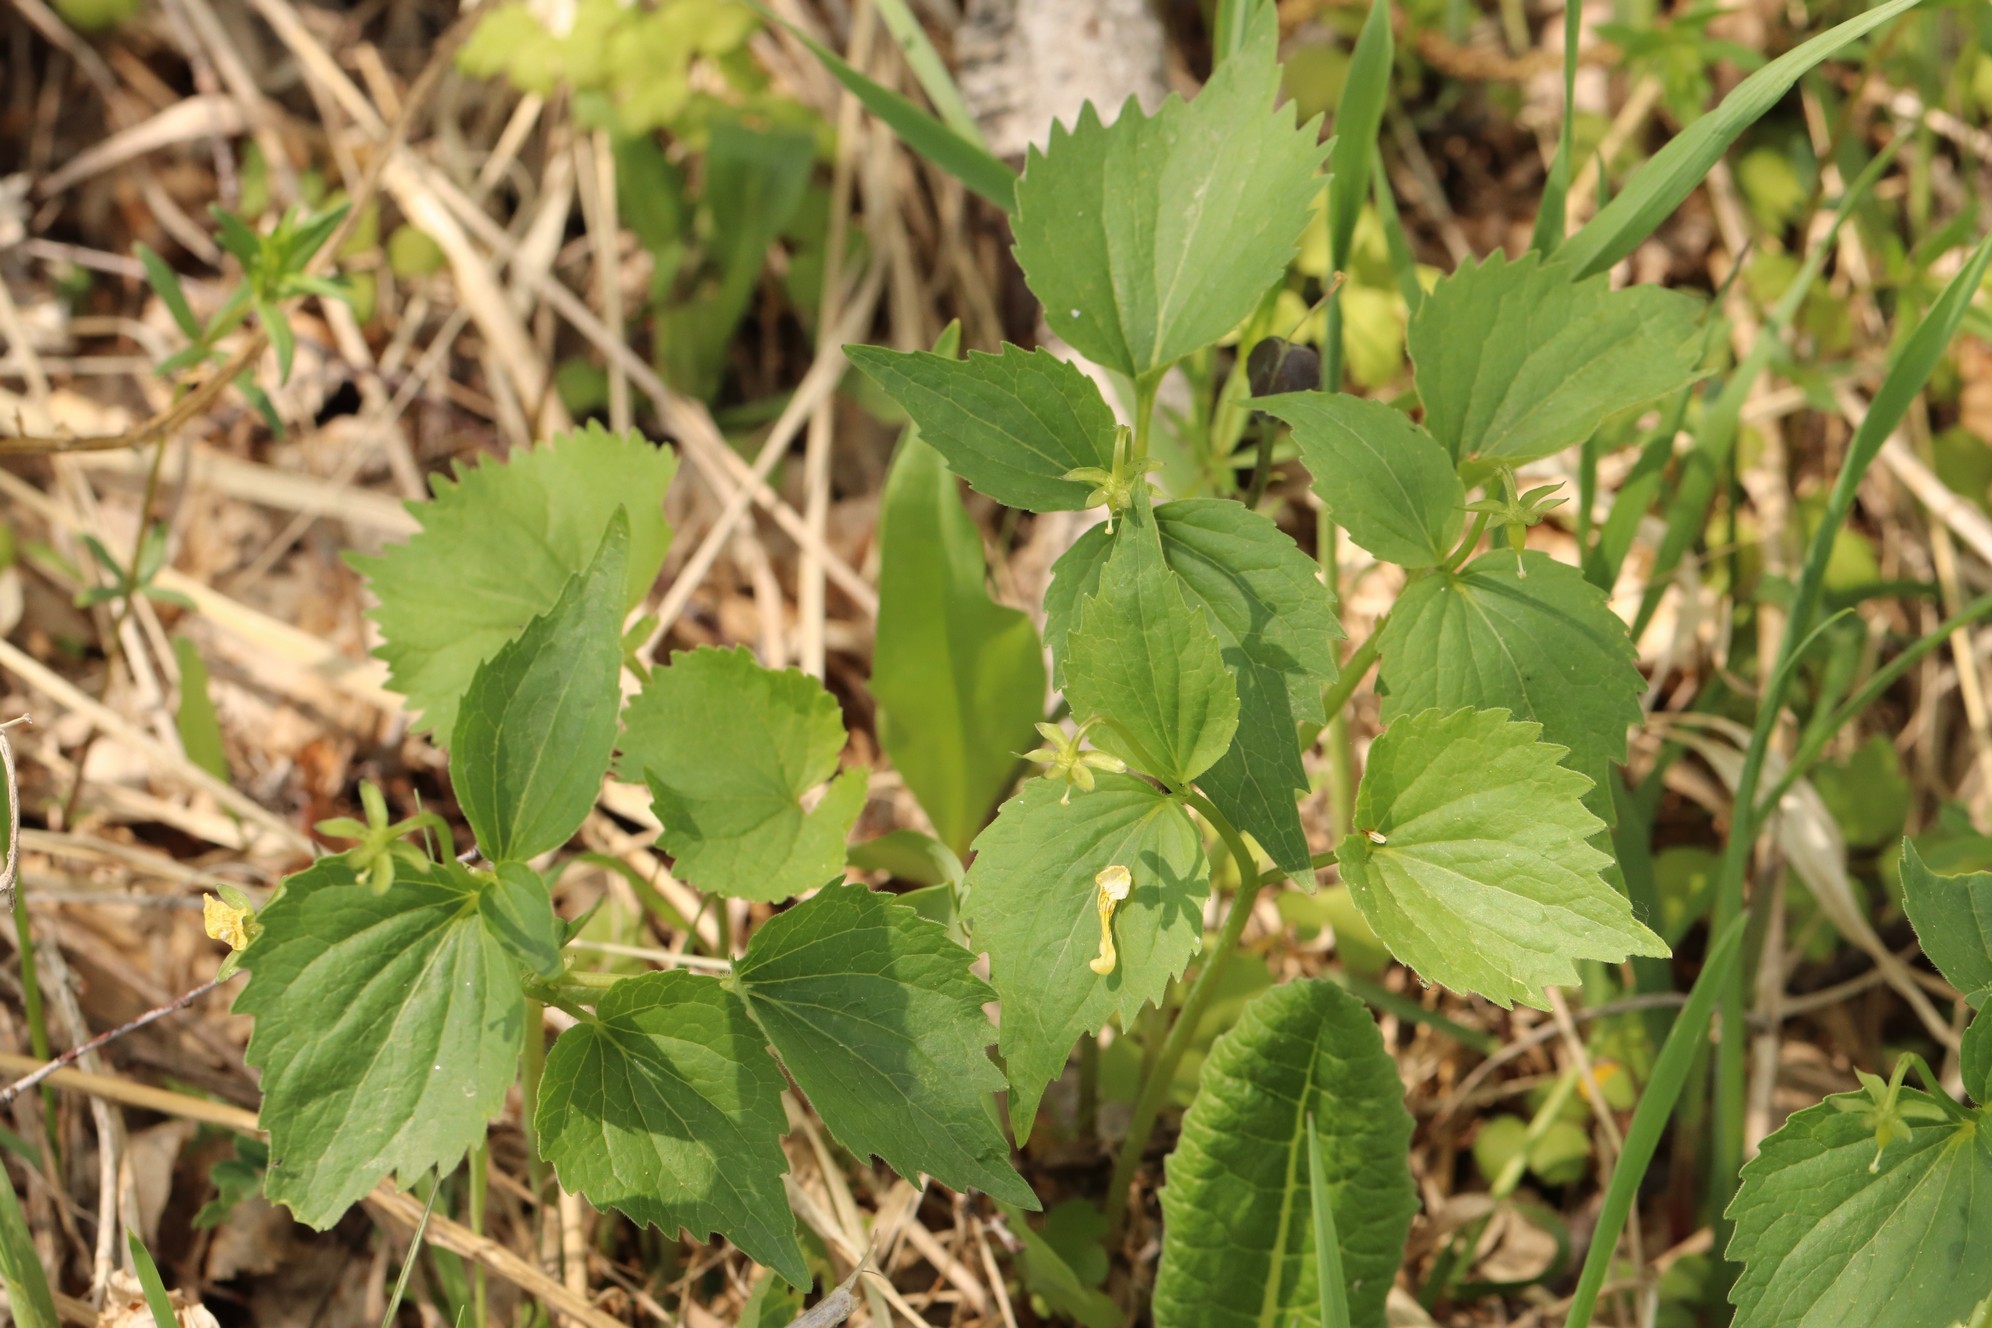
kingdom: Plantae
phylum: Tracheophyta
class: Magnoliopsida
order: Malpighiales
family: Violaceae
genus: Viola
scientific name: Viola uniflora
